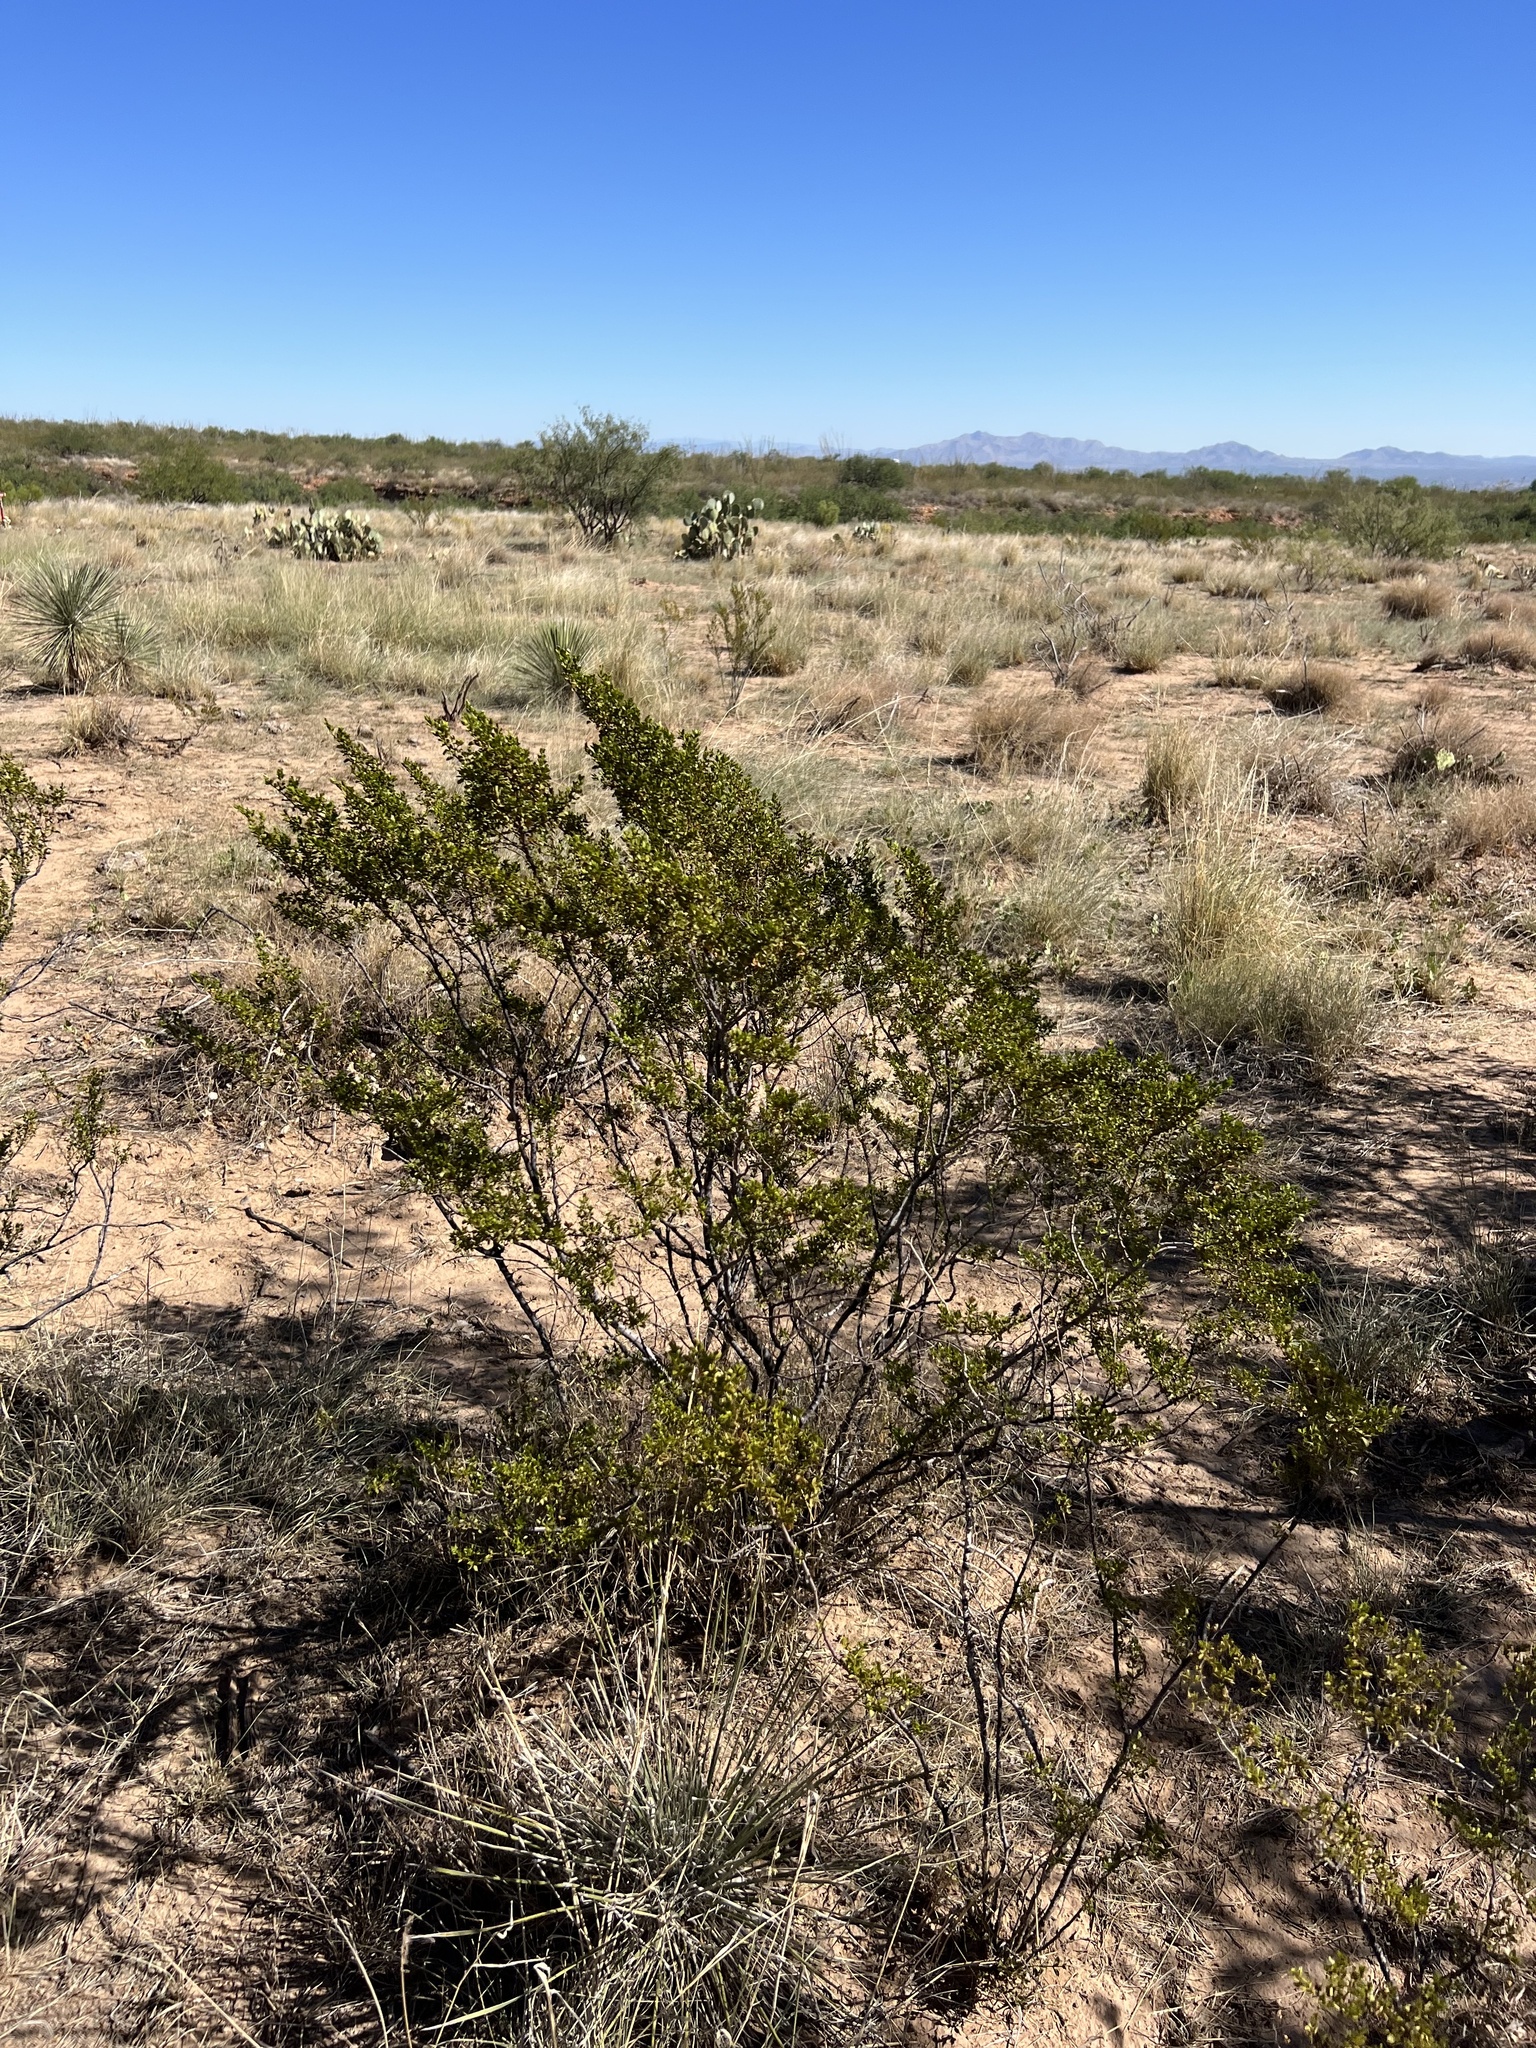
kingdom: Plantae
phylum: Tracheophyta
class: Magnoliopsida
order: Zygophyllales
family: Zygophyllaceae
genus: Larrea
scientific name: Larrea tridentata
